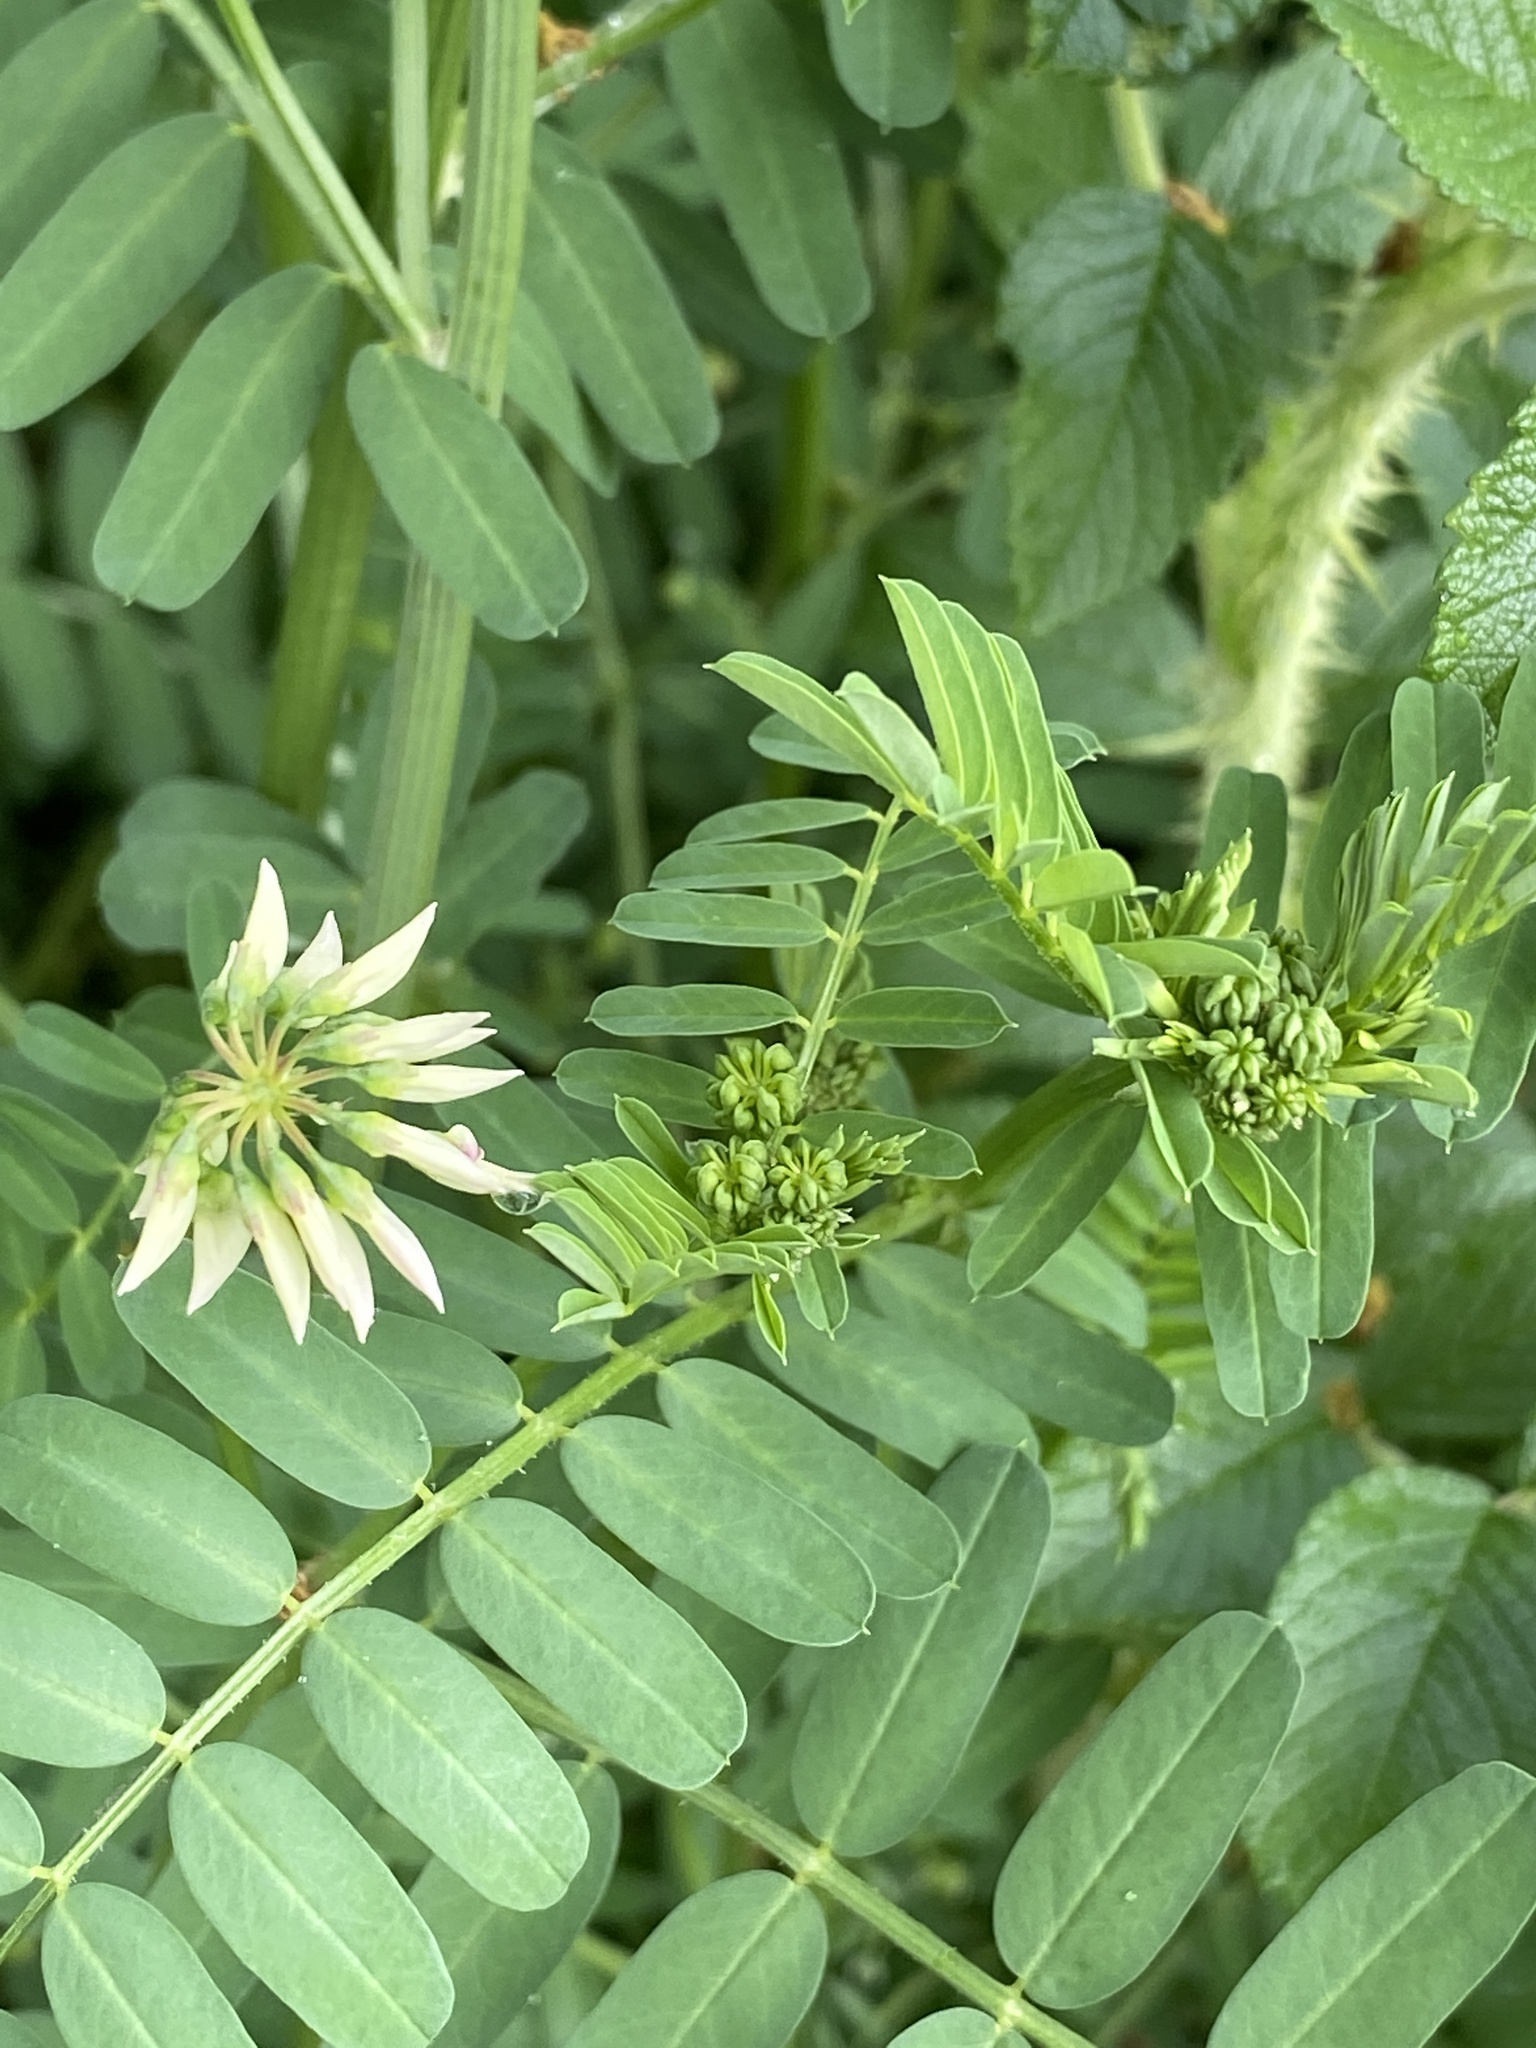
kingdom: Plantae
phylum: Tracheophyta
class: Magnoliopsida
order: Fabales
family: Fabaceae
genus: Coronilla
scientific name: Coronilla varia
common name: Crownvetch
